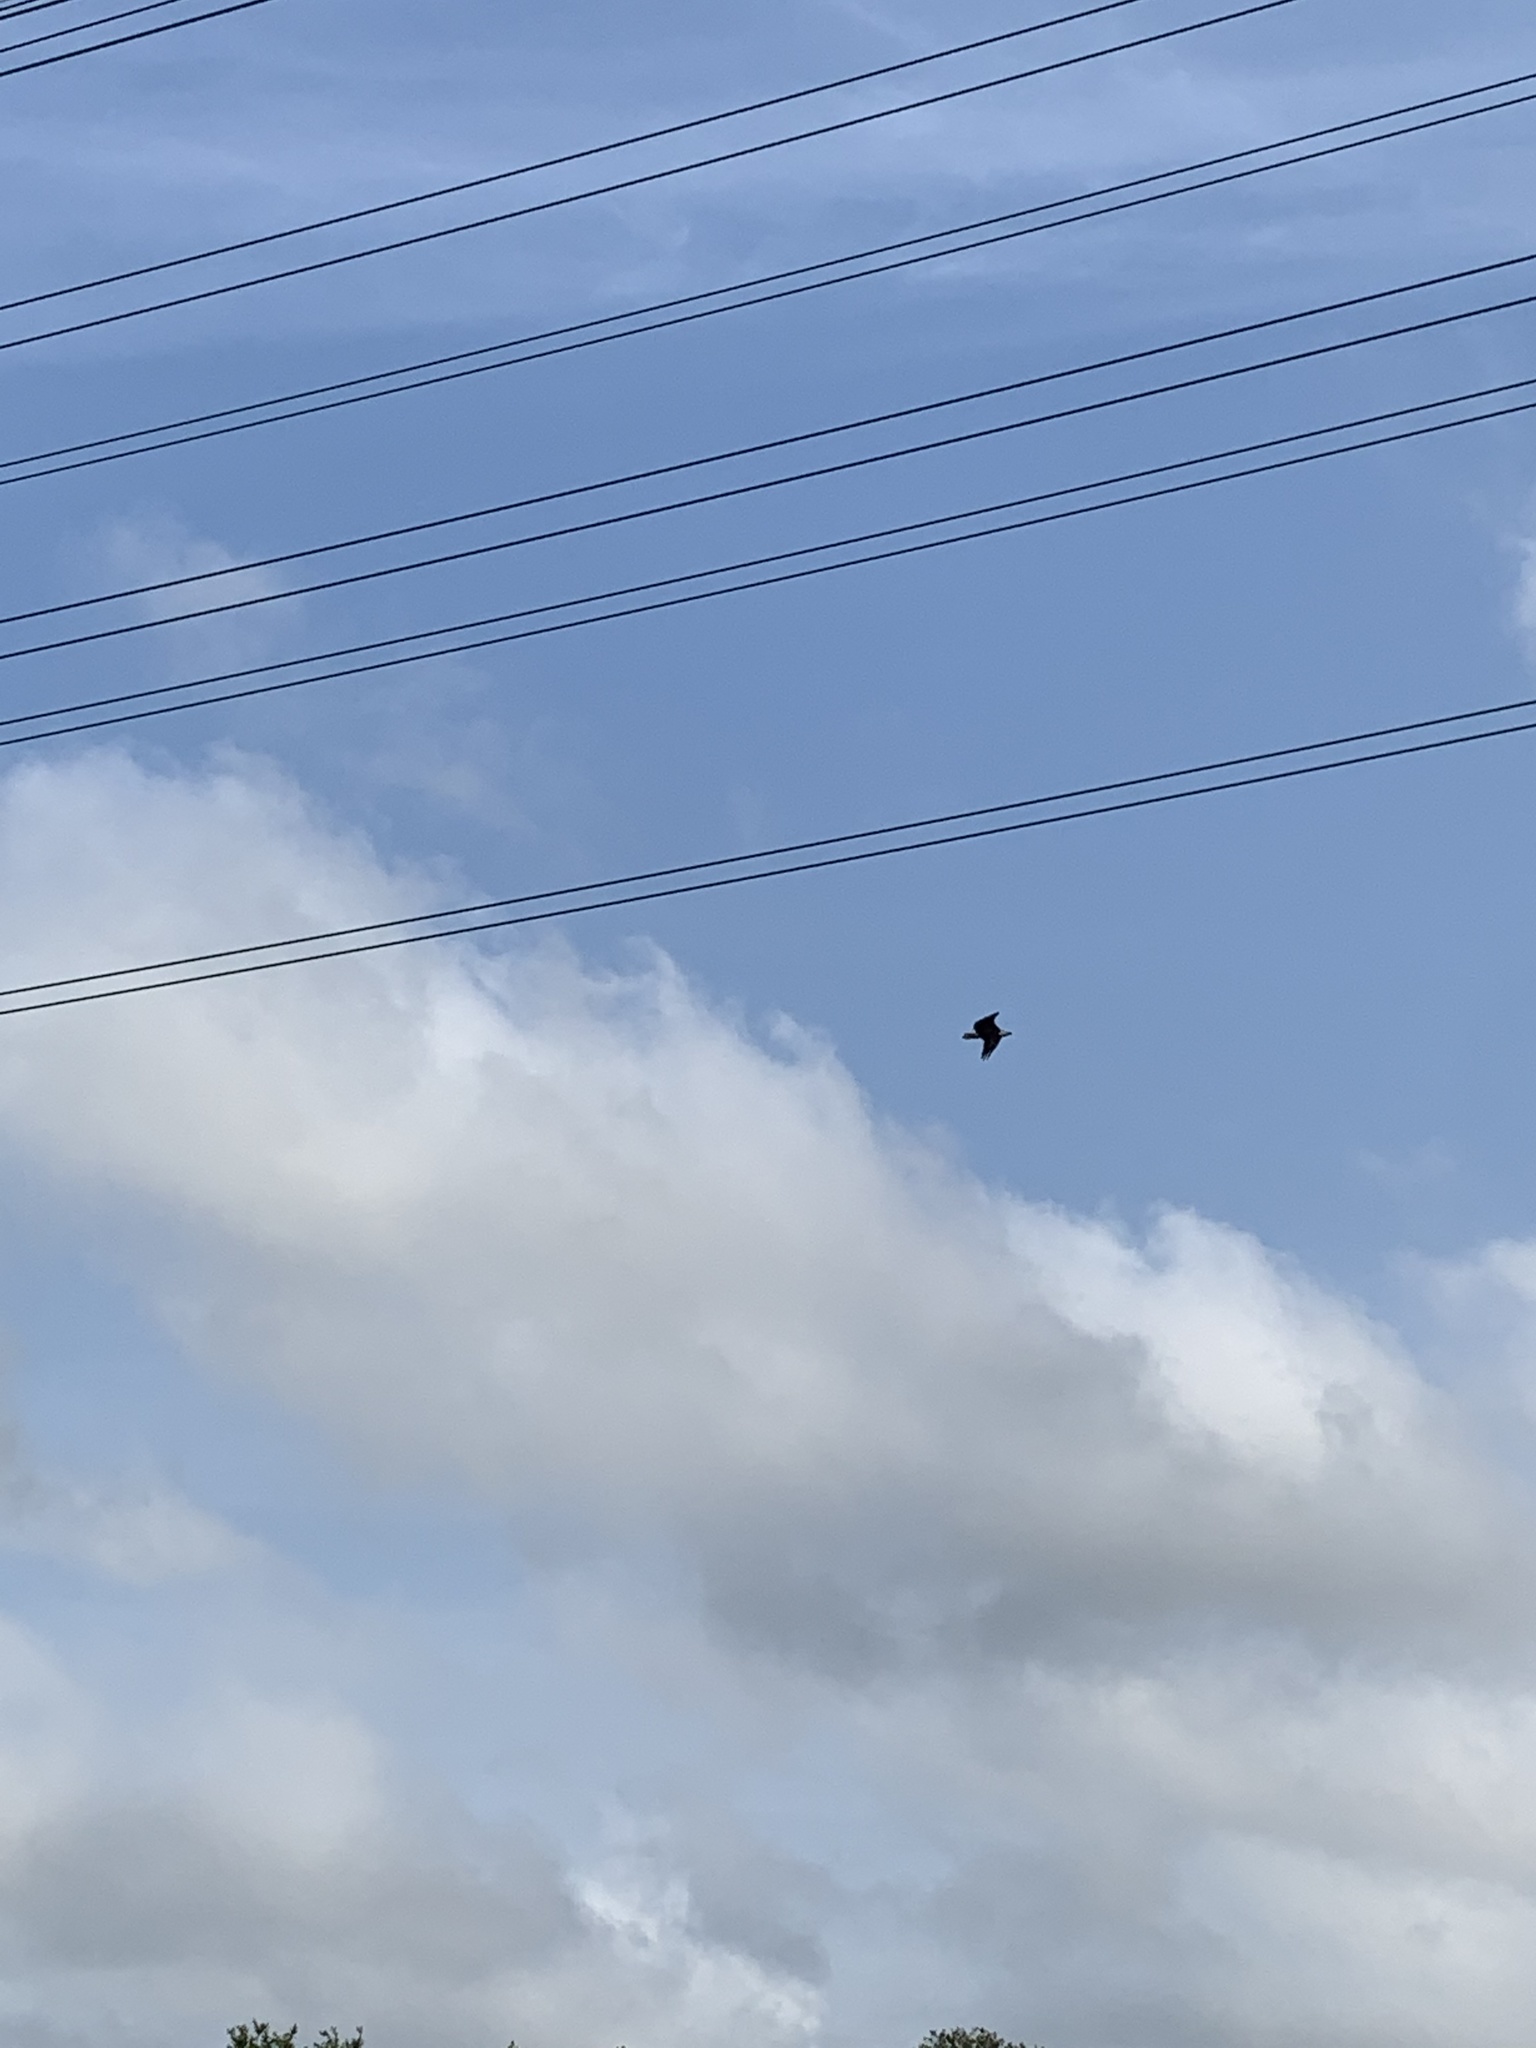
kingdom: Animalia
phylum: Chordata
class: Aves
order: Accipitriformes
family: Accipitridae
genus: Haliaeetus
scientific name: Haliaeetus leucocephalus
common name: Bald eagle
